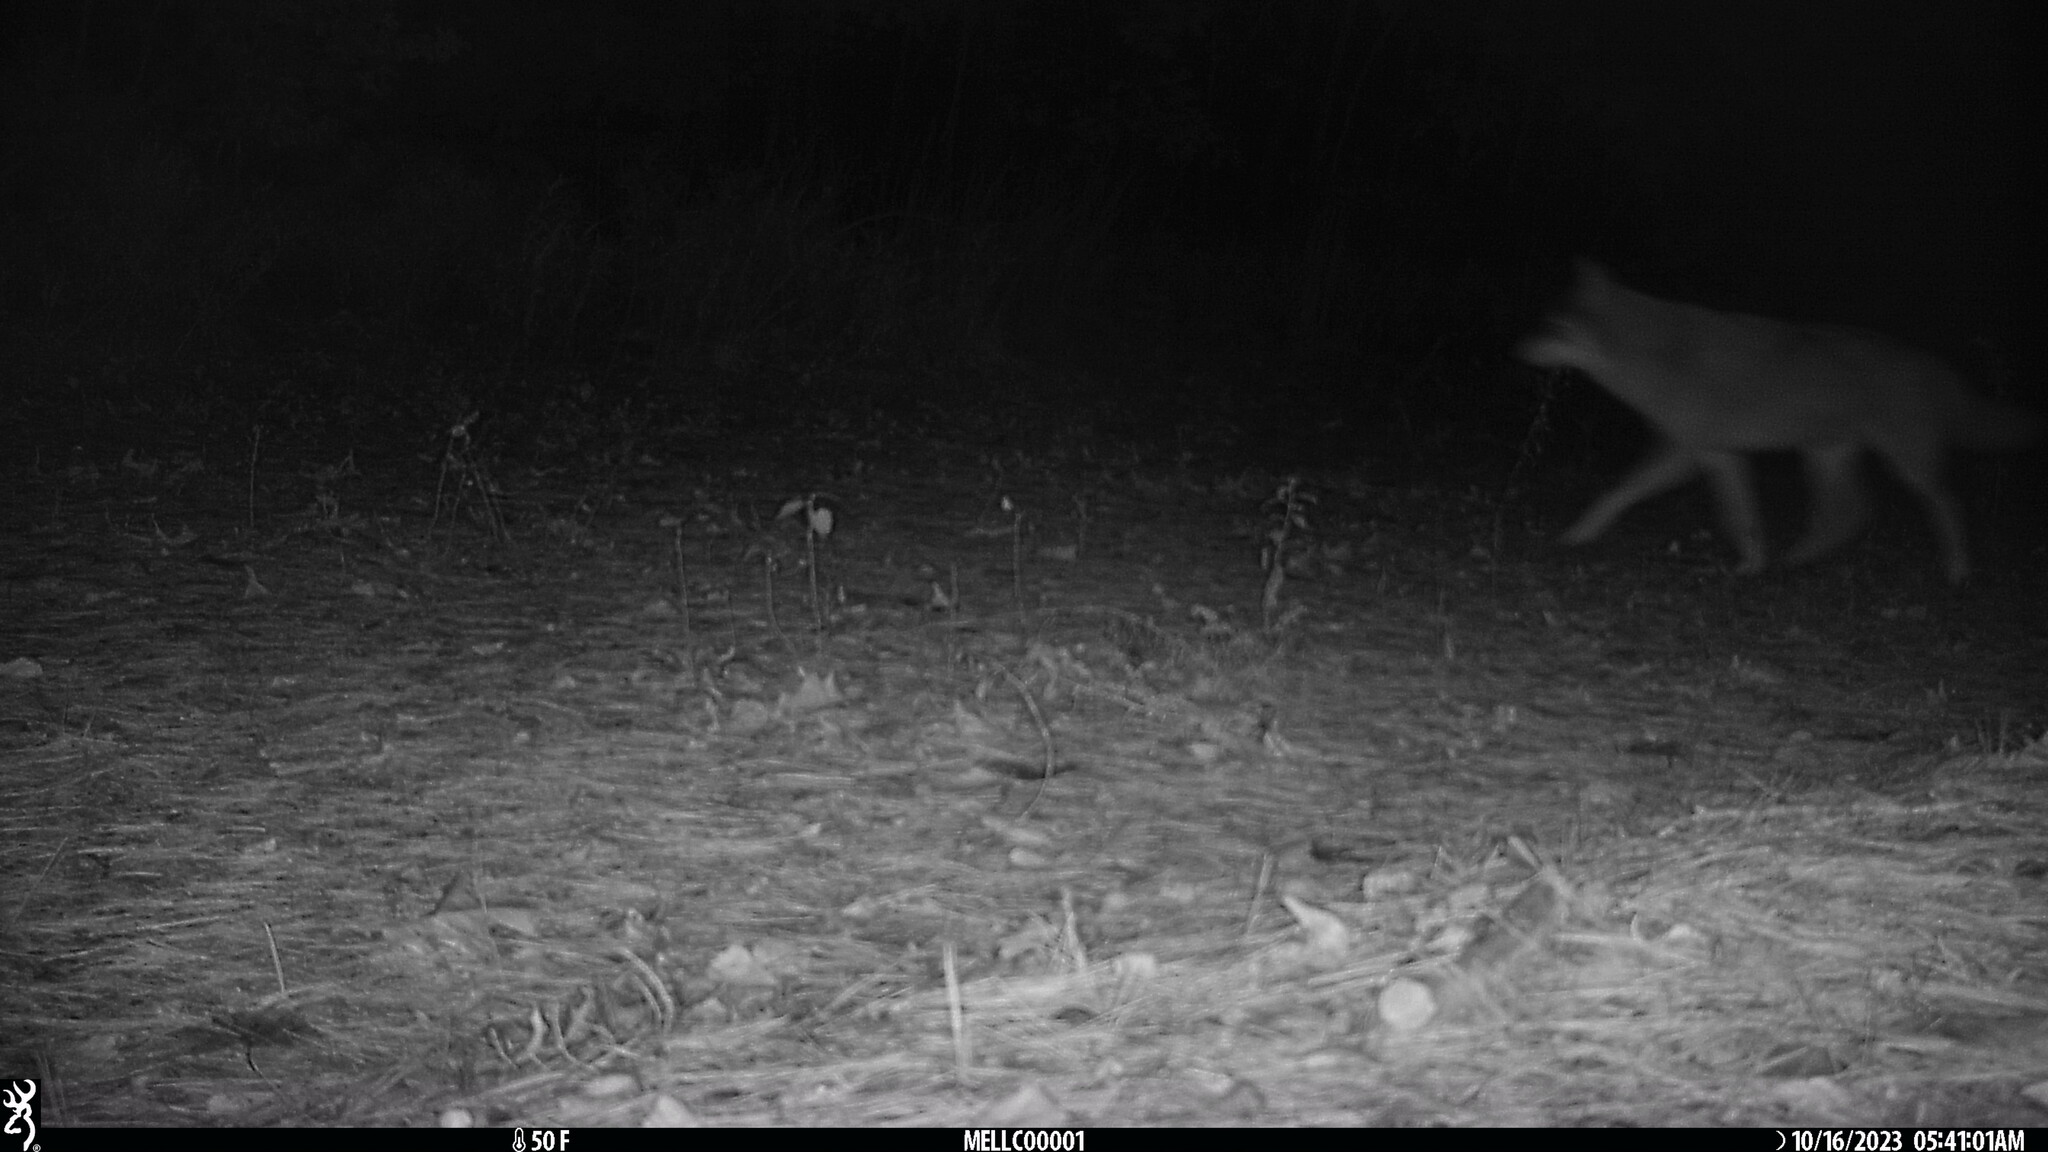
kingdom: Animalia
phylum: Chordata
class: Mammalia
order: Carnivora
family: Canidae
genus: Canis
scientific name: Canis latrans
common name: Coyote
